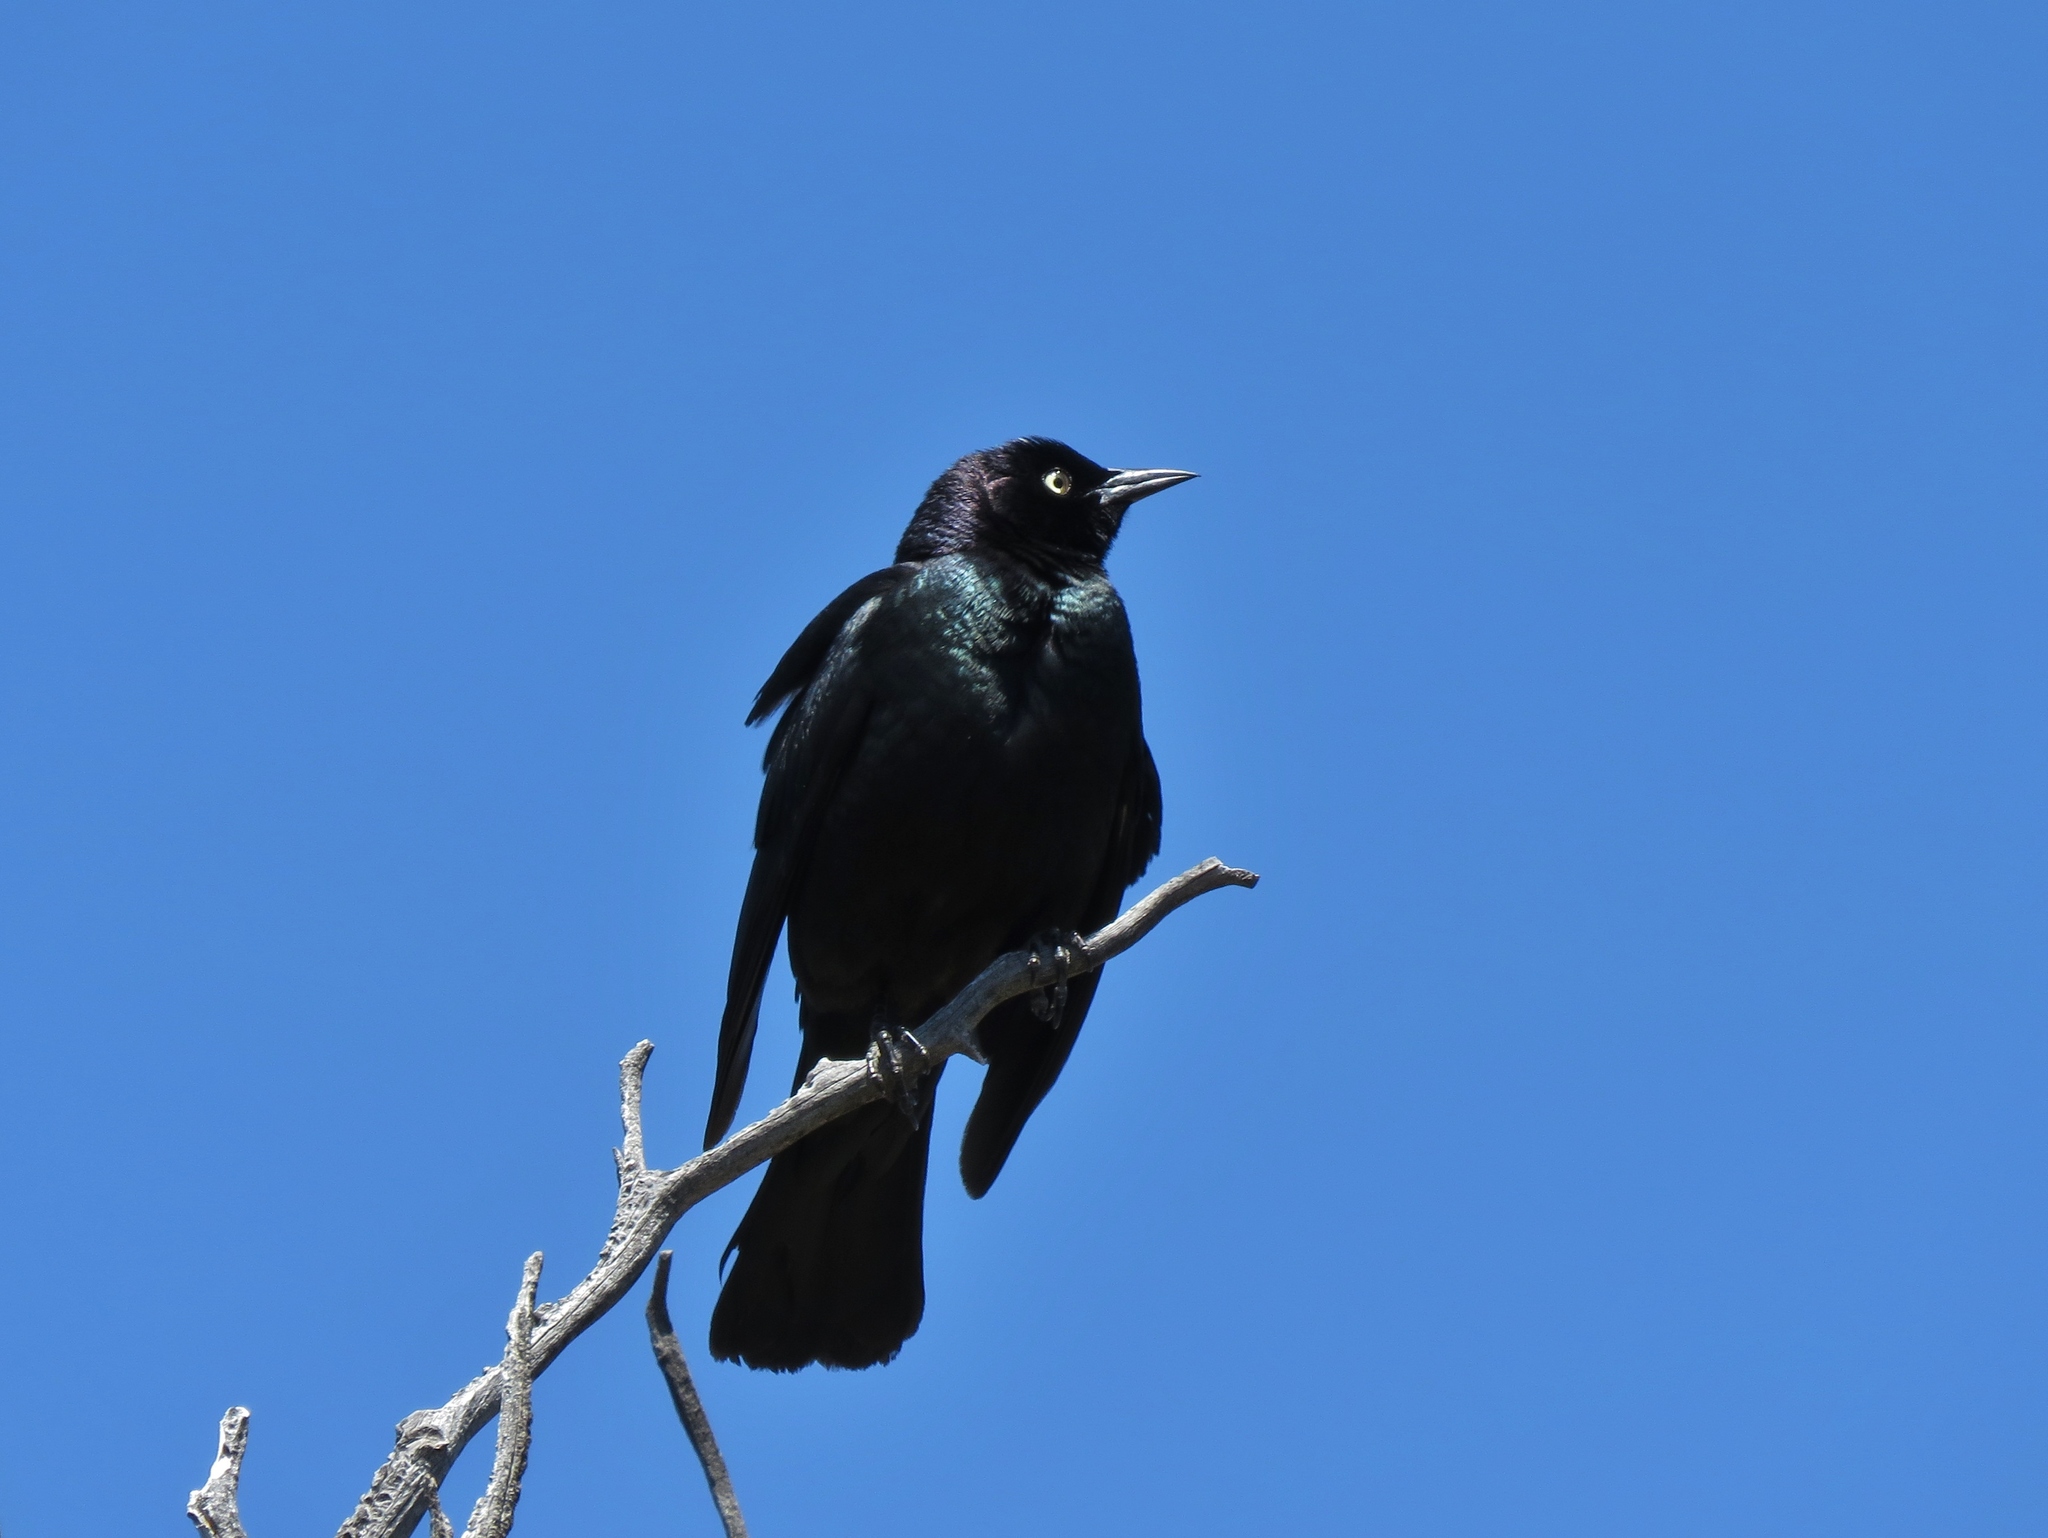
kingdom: Animalia
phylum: Chordata
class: Aves
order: Passeriformes
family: Icteridae
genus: Euphagus
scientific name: Euphagus cyanocephalus
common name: Brewer's blackbird
